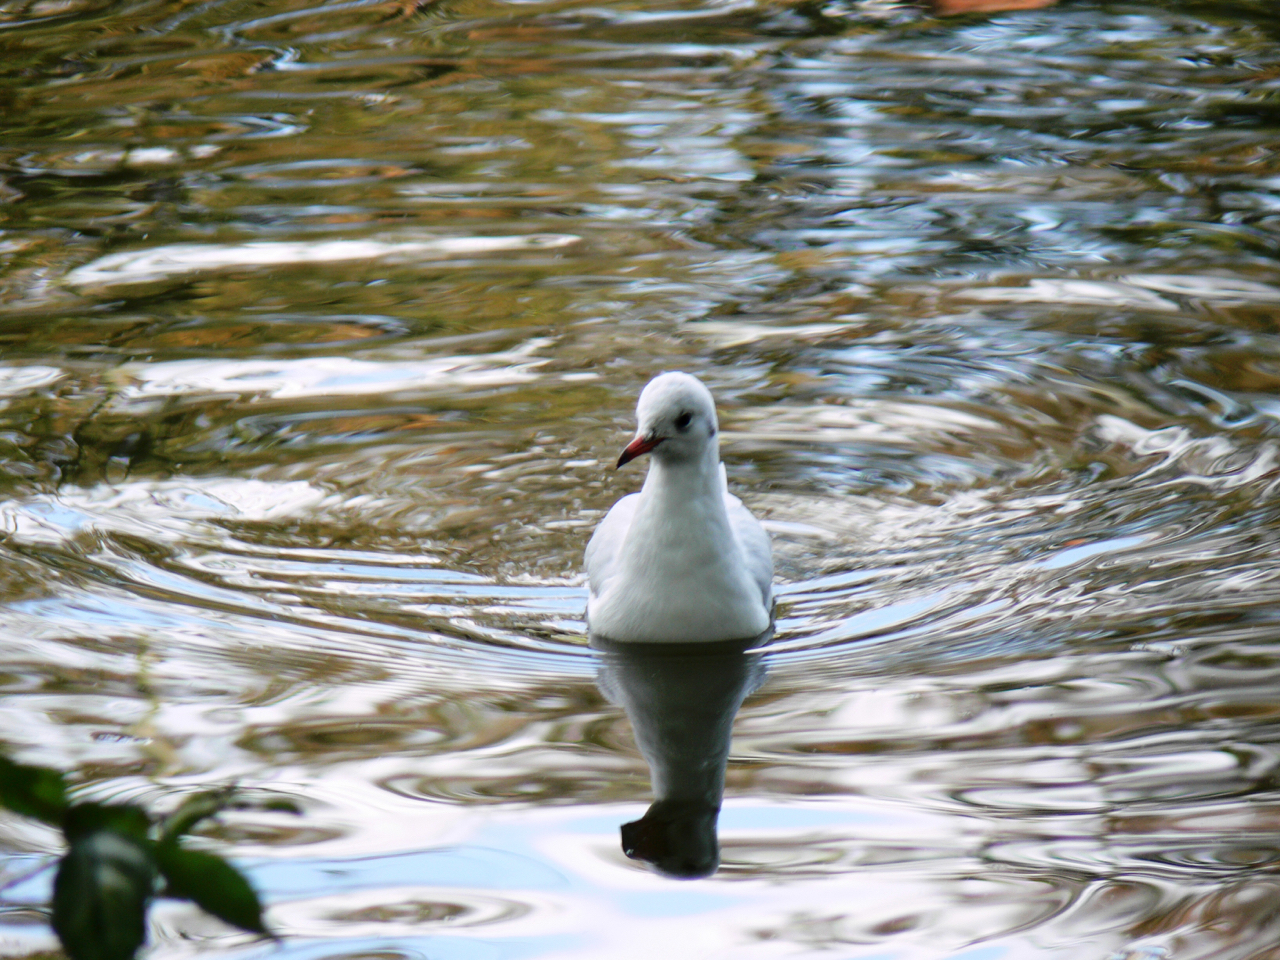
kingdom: Animalia
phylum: Chordata
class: Aves
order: Charadriiformes
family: Laridae
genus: Chroicocephalus
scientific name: Chroicocephalus ridibundus
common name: Black-headed gull
